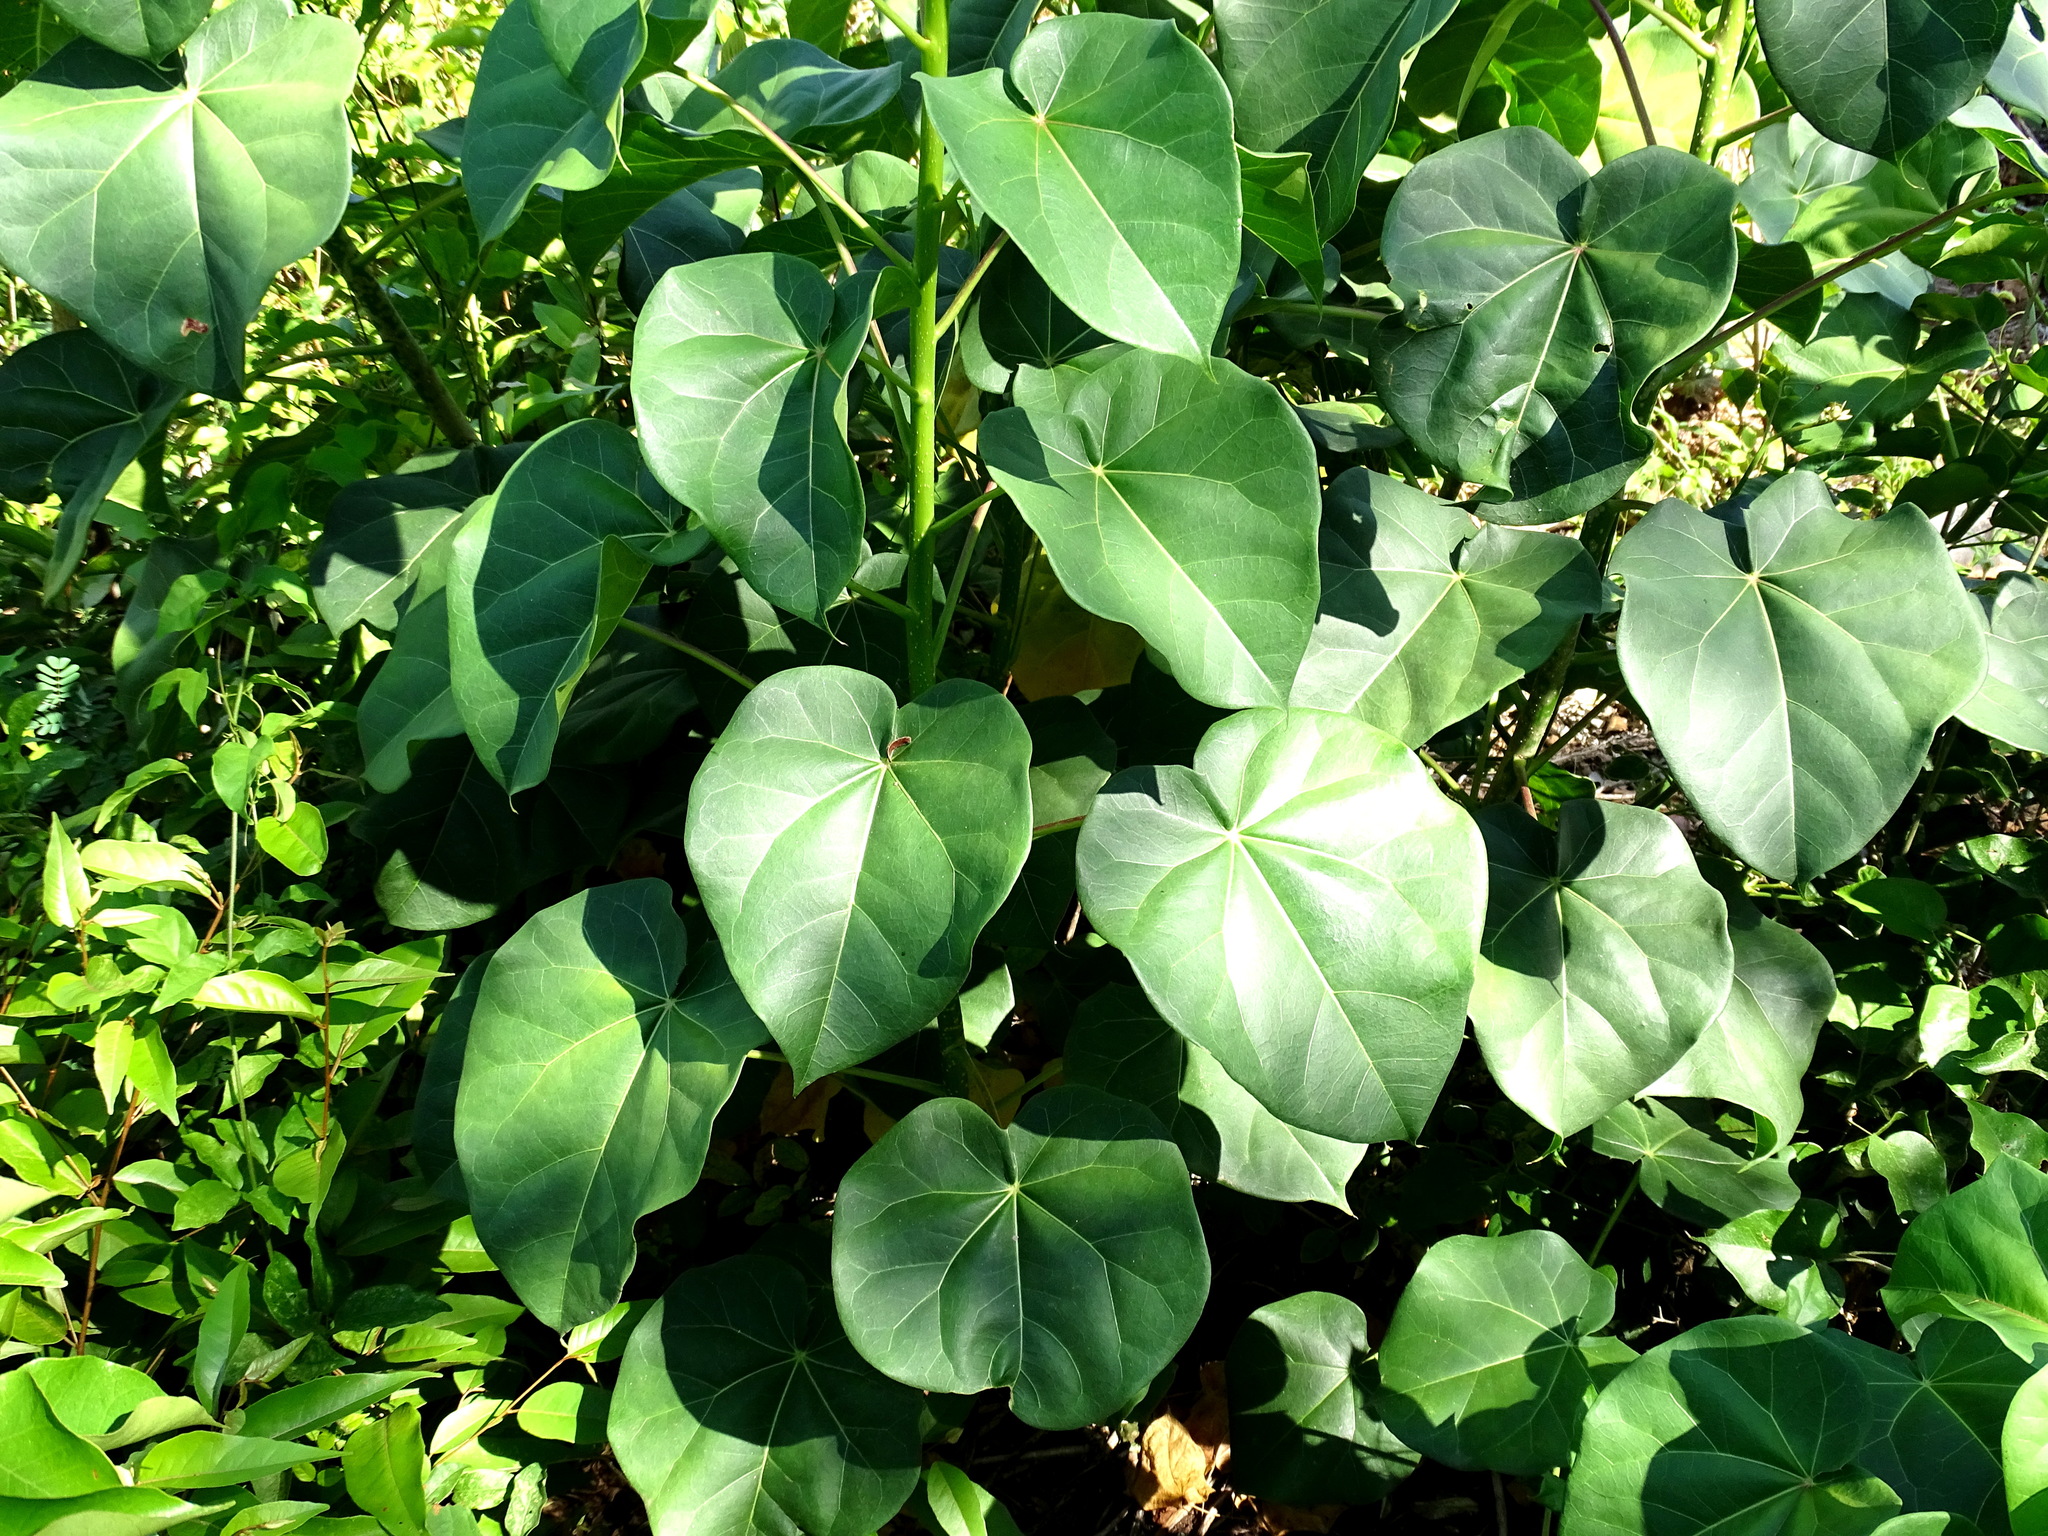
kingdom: Plantae
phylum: Tracheophyta
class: Magnoliopsida
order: Malpighiales
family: Euphorbiaceae
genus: Jatropha
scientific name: Jatropha gaumeri
